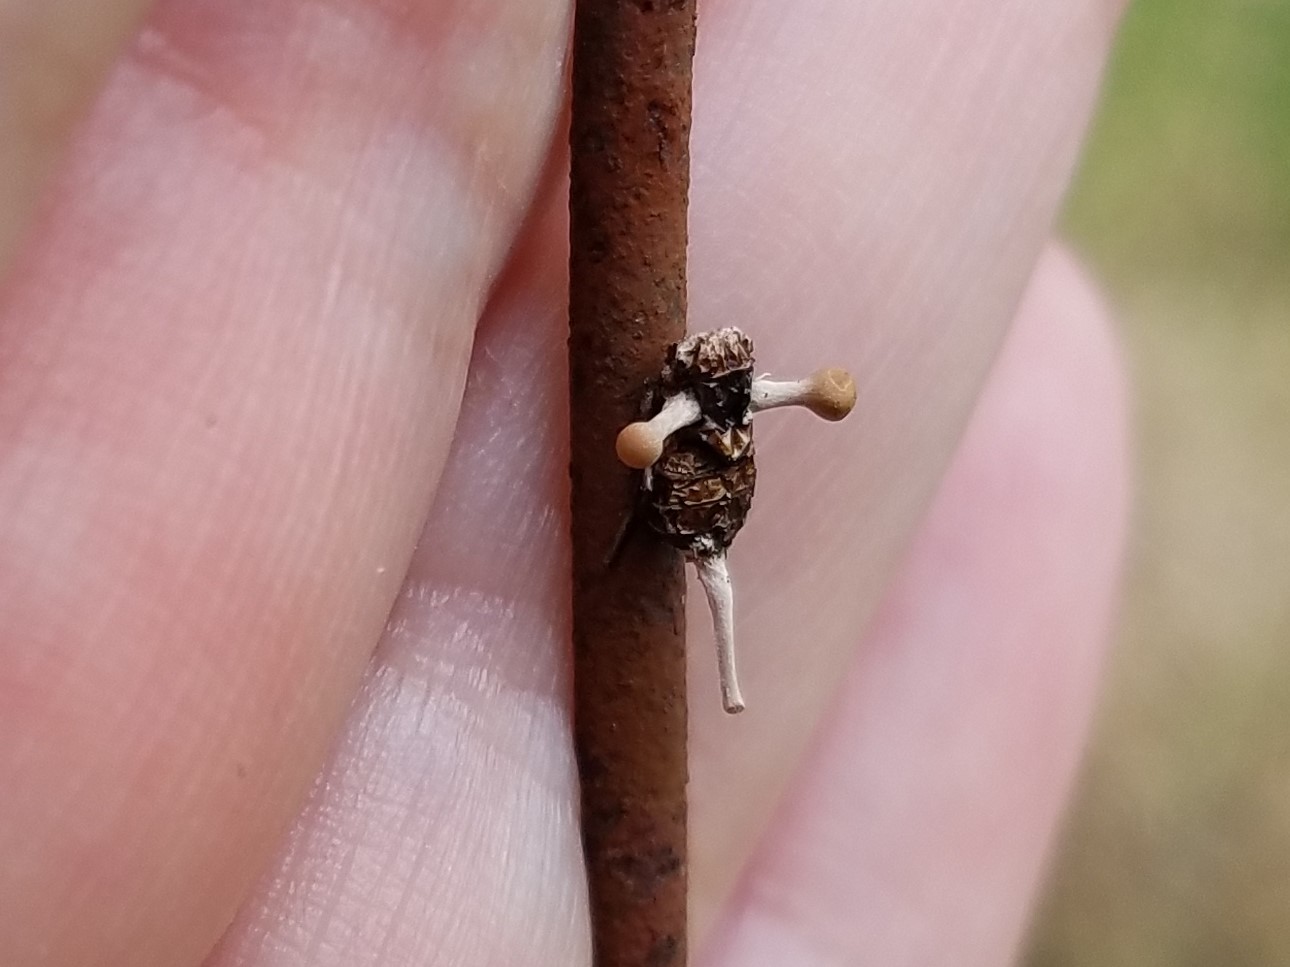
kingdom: Fungi
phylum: Ascomycota
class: Sordariomycetes
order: Hypocreales
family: Ophiocordycipitaceae
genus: Ophiocordyceps
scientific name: Ophiocordyceps dipterigena
